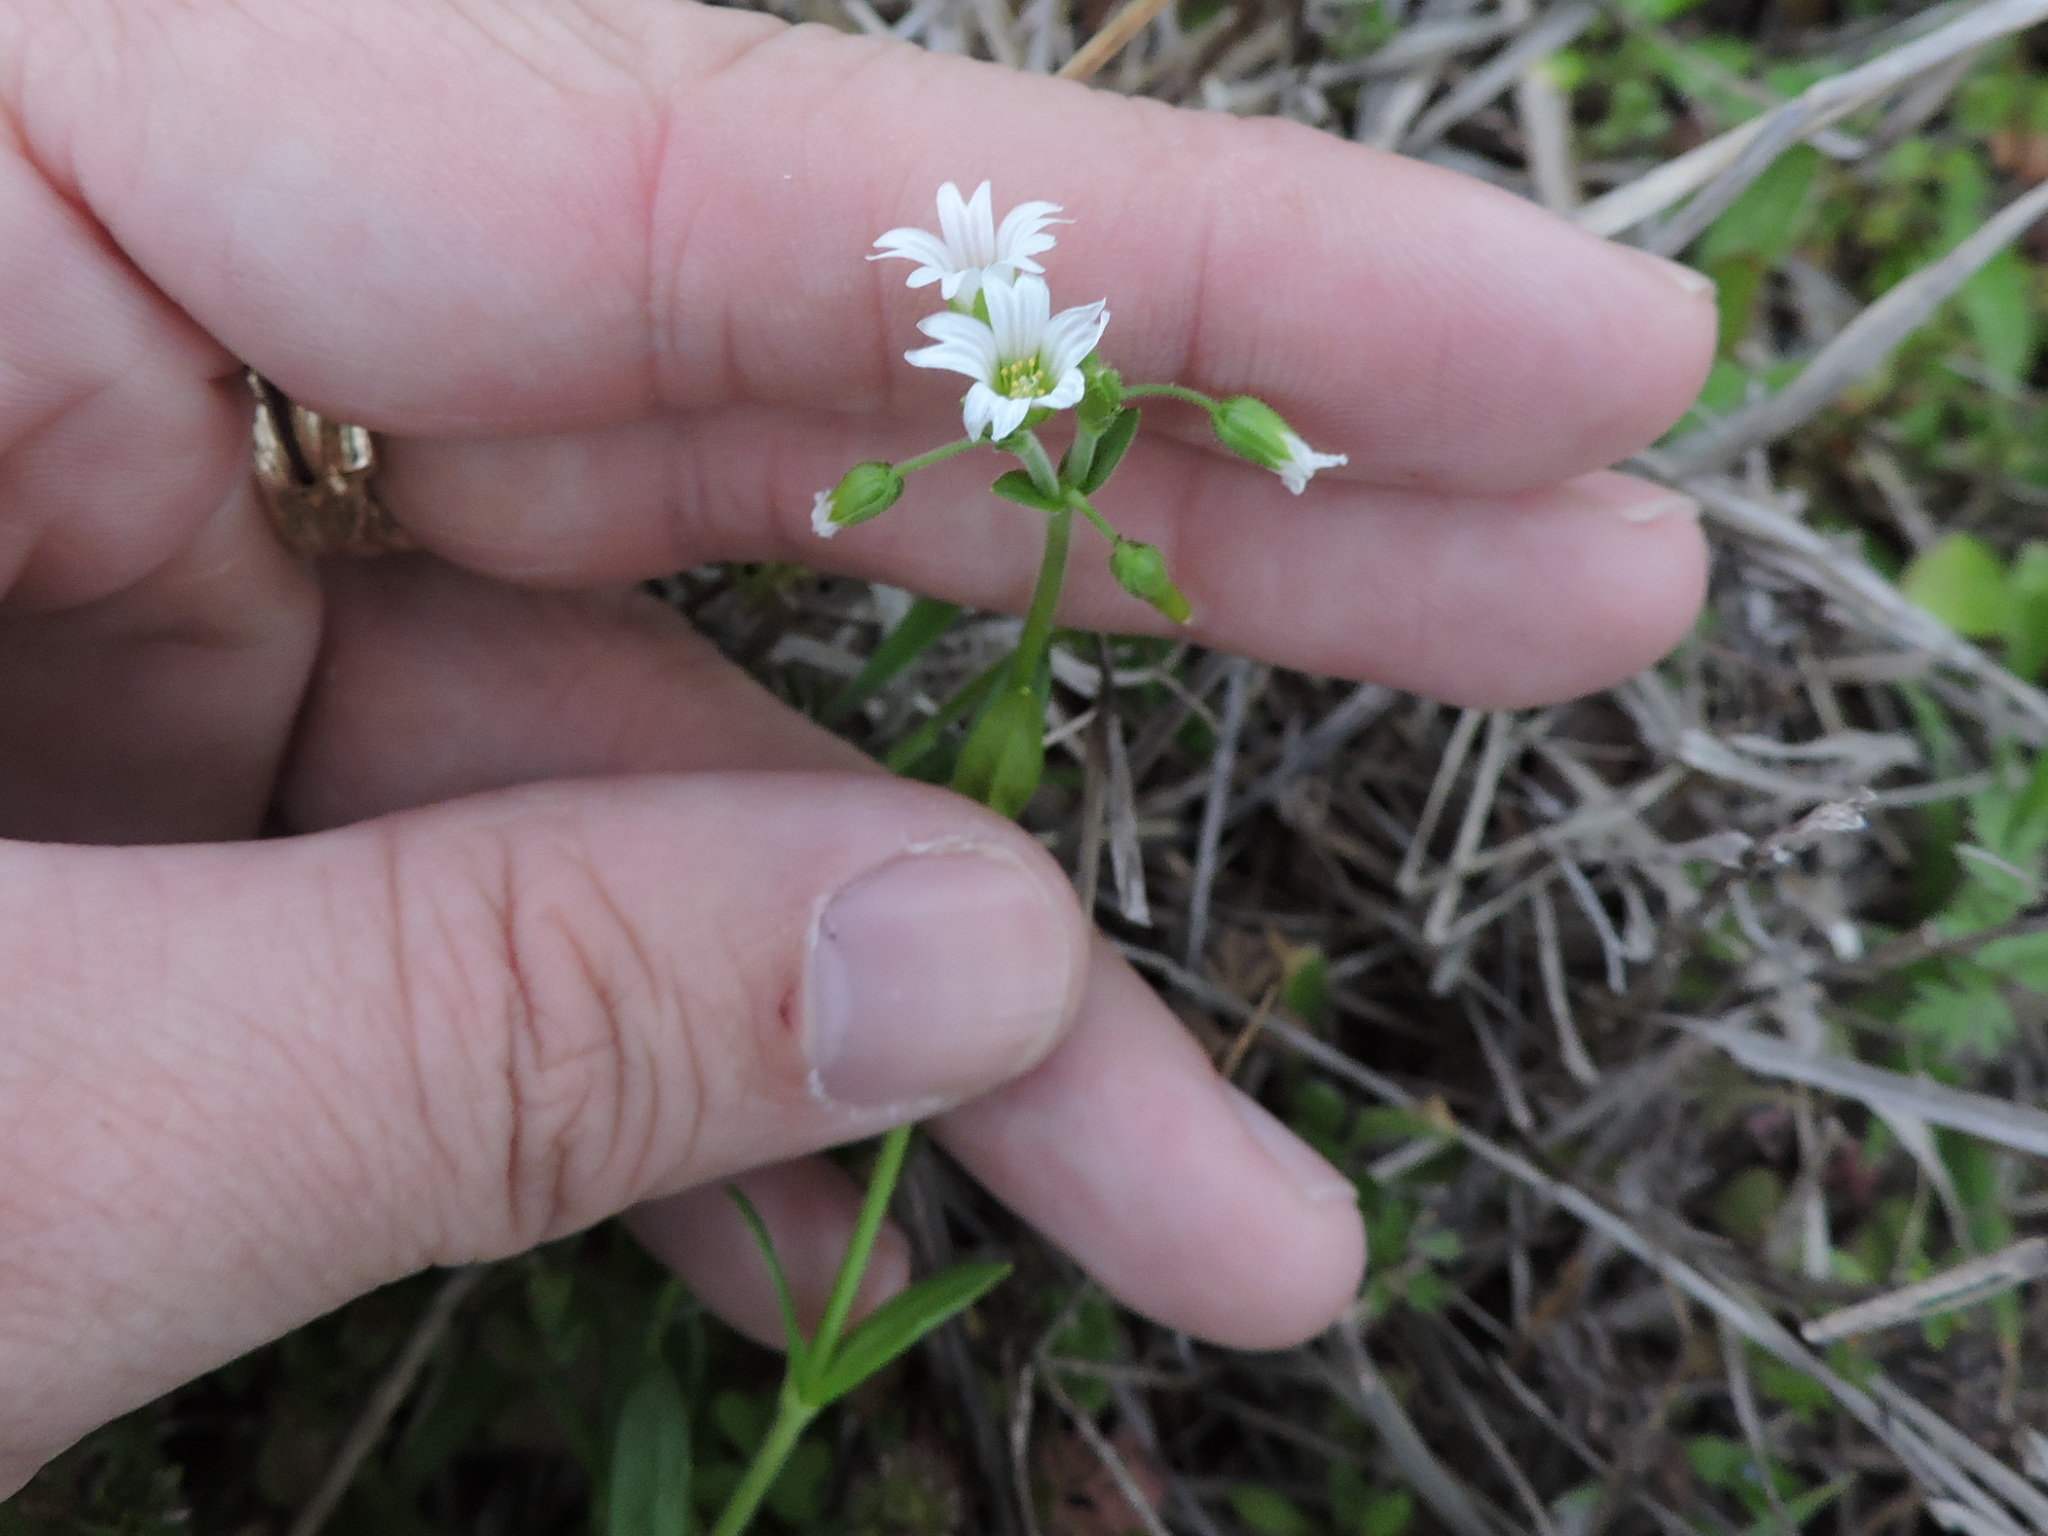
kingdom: Plantae
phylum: Tracheophyta
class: Magnoliopsida
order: Caryophyllales
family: Caryophyllaceae
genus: Cerastium
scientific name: Cerastium glomeratum
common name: Sticky chickweed
